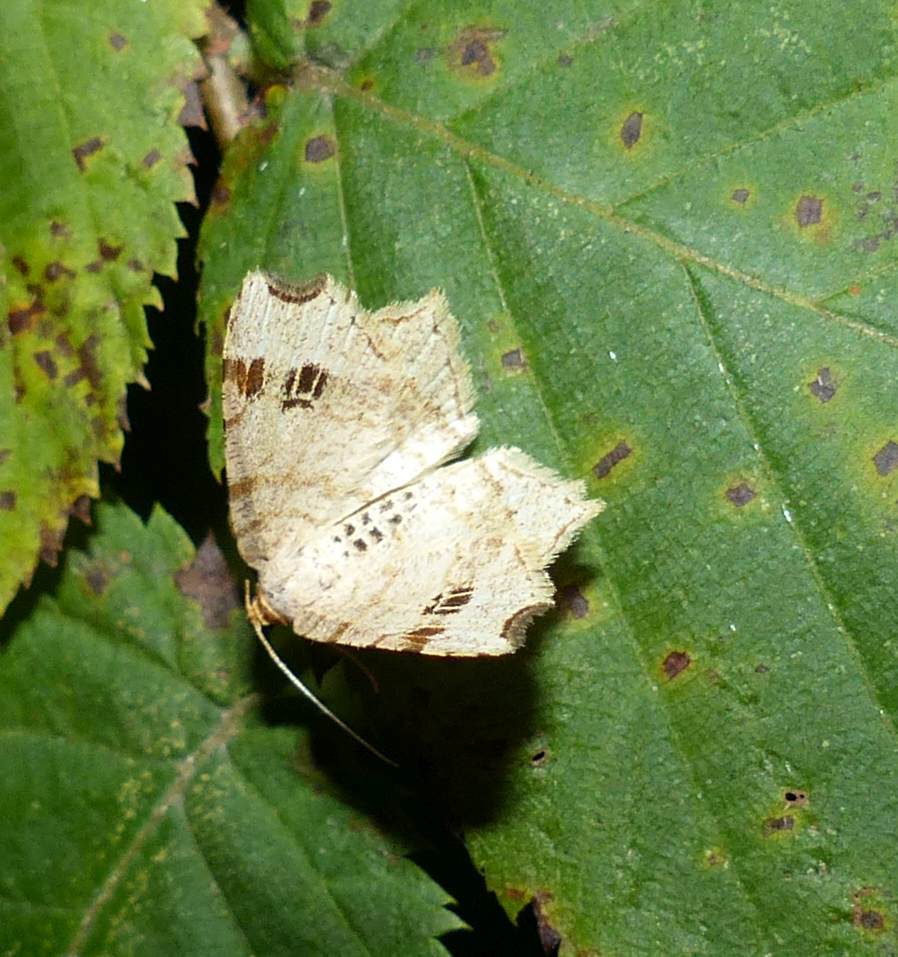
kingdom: Animalia
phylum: Arthropoda
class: Insecta
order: Lepidoptera
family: Geometridae
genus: Macaria
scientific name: Macaria aemulataria
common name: Common angle
